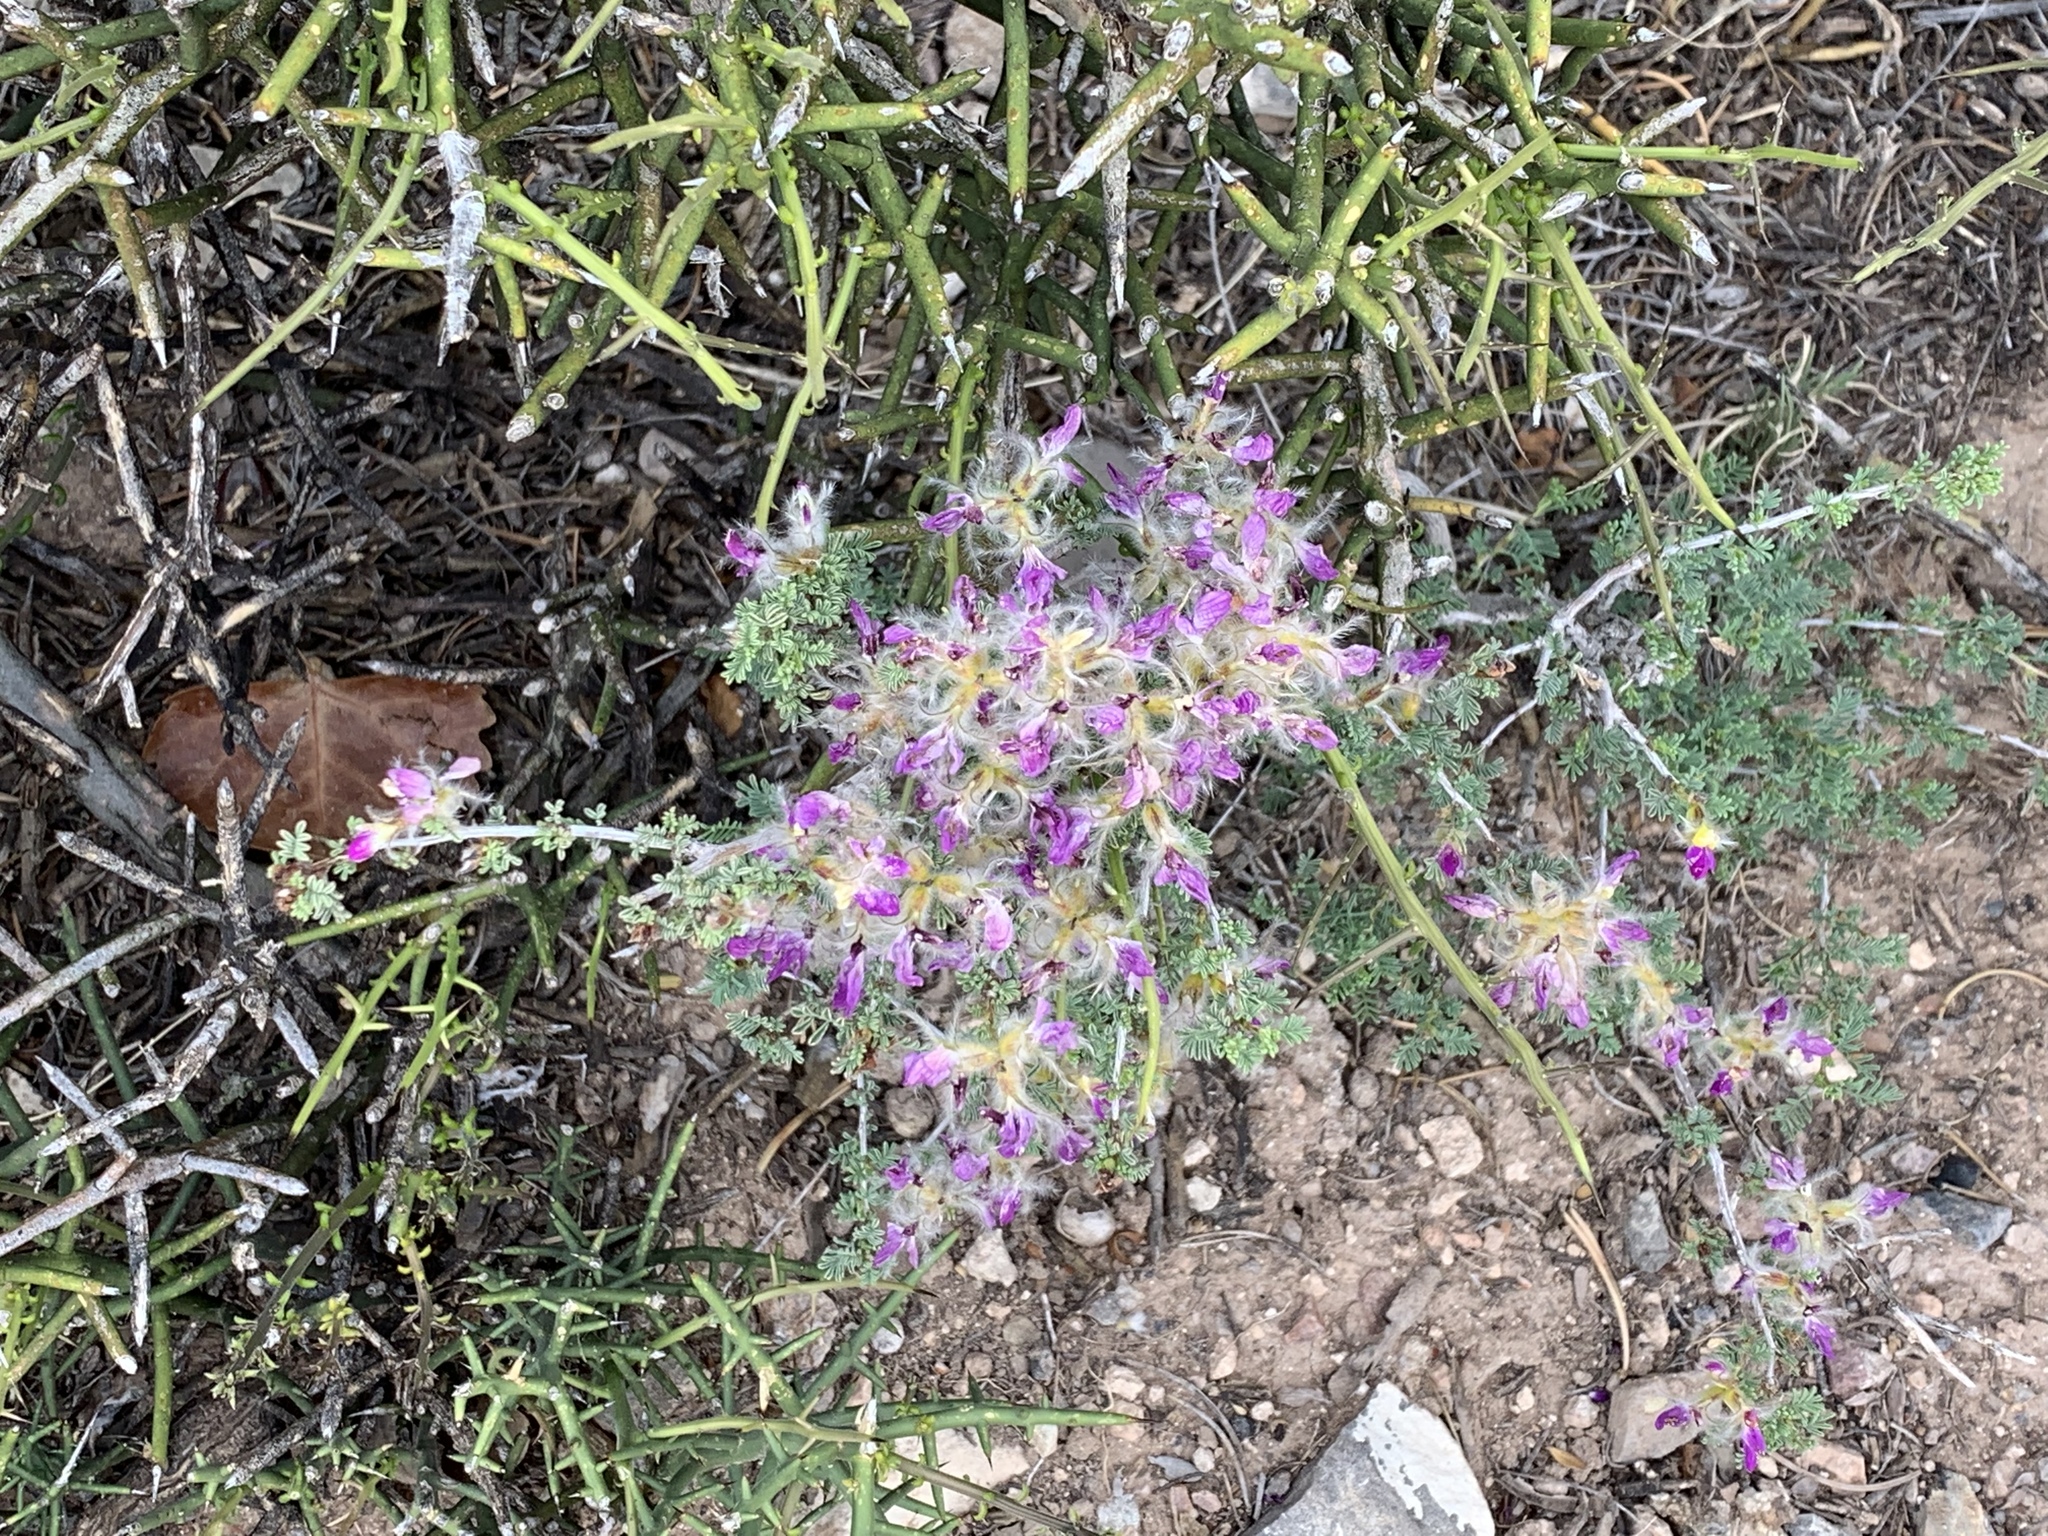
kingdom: Plantae
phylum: Tracheophyta
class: Magnoliopsida
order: Fabales
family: Fabaceae
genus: Dalea
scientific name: Dalea formosa
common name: Feather-plume dalea
